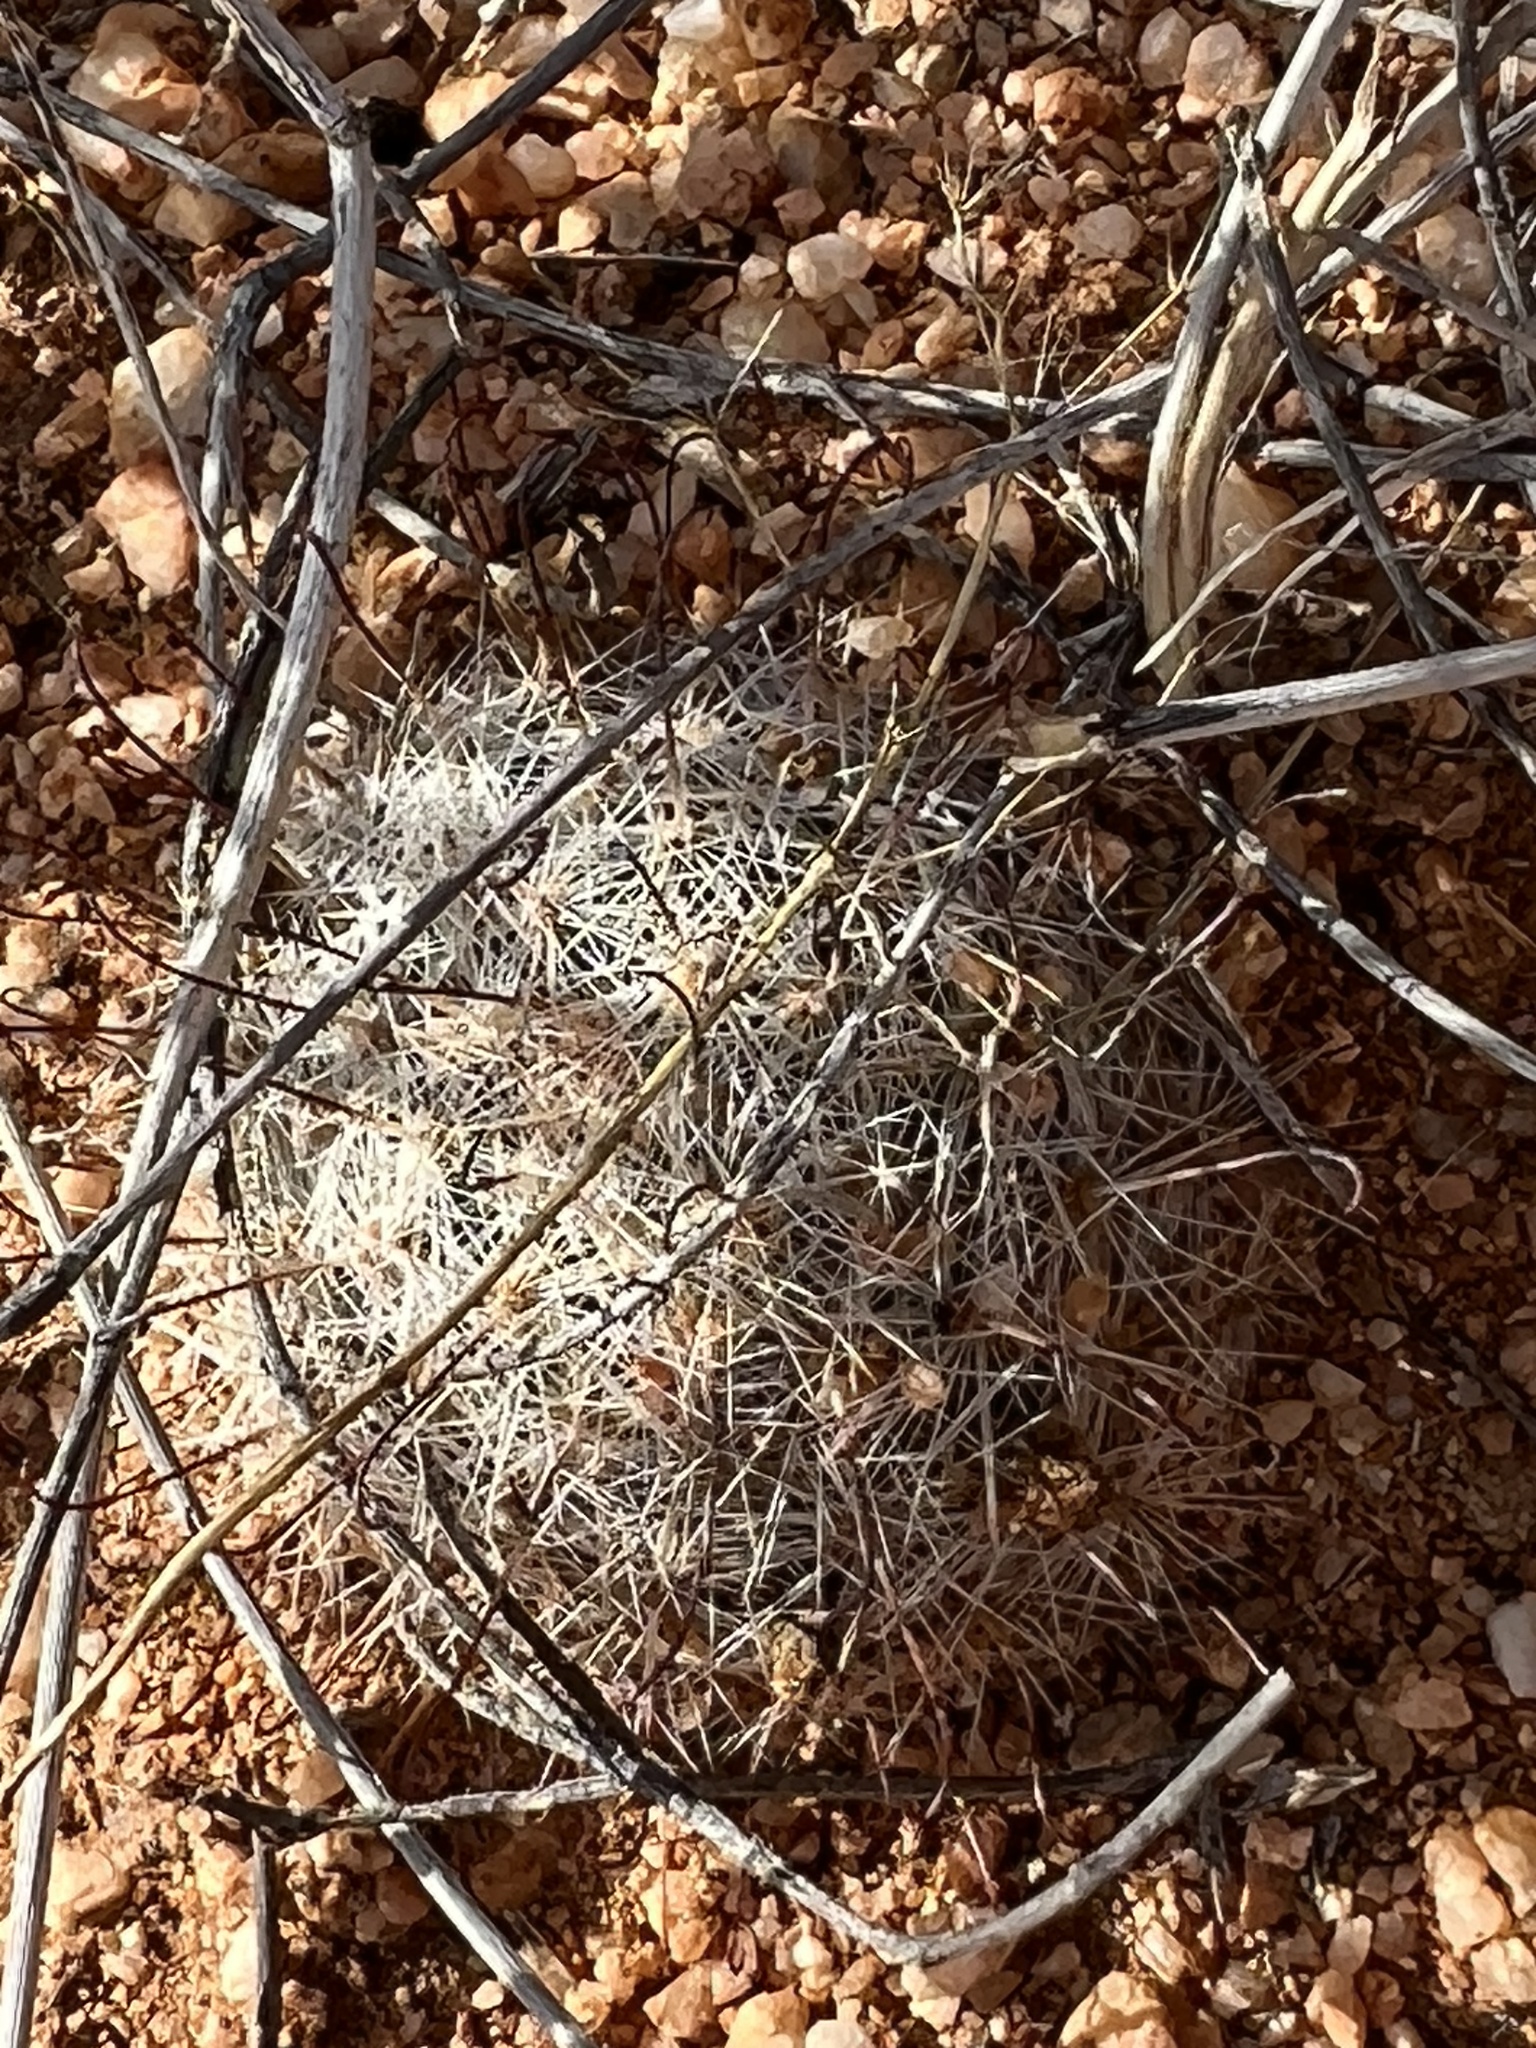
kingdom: Plantae
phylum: Tracheophyta
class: Magnoliopsida
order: Caryophyllales
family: Cactaceae
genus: Cochemiea
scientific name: Cochemiea grahamii
